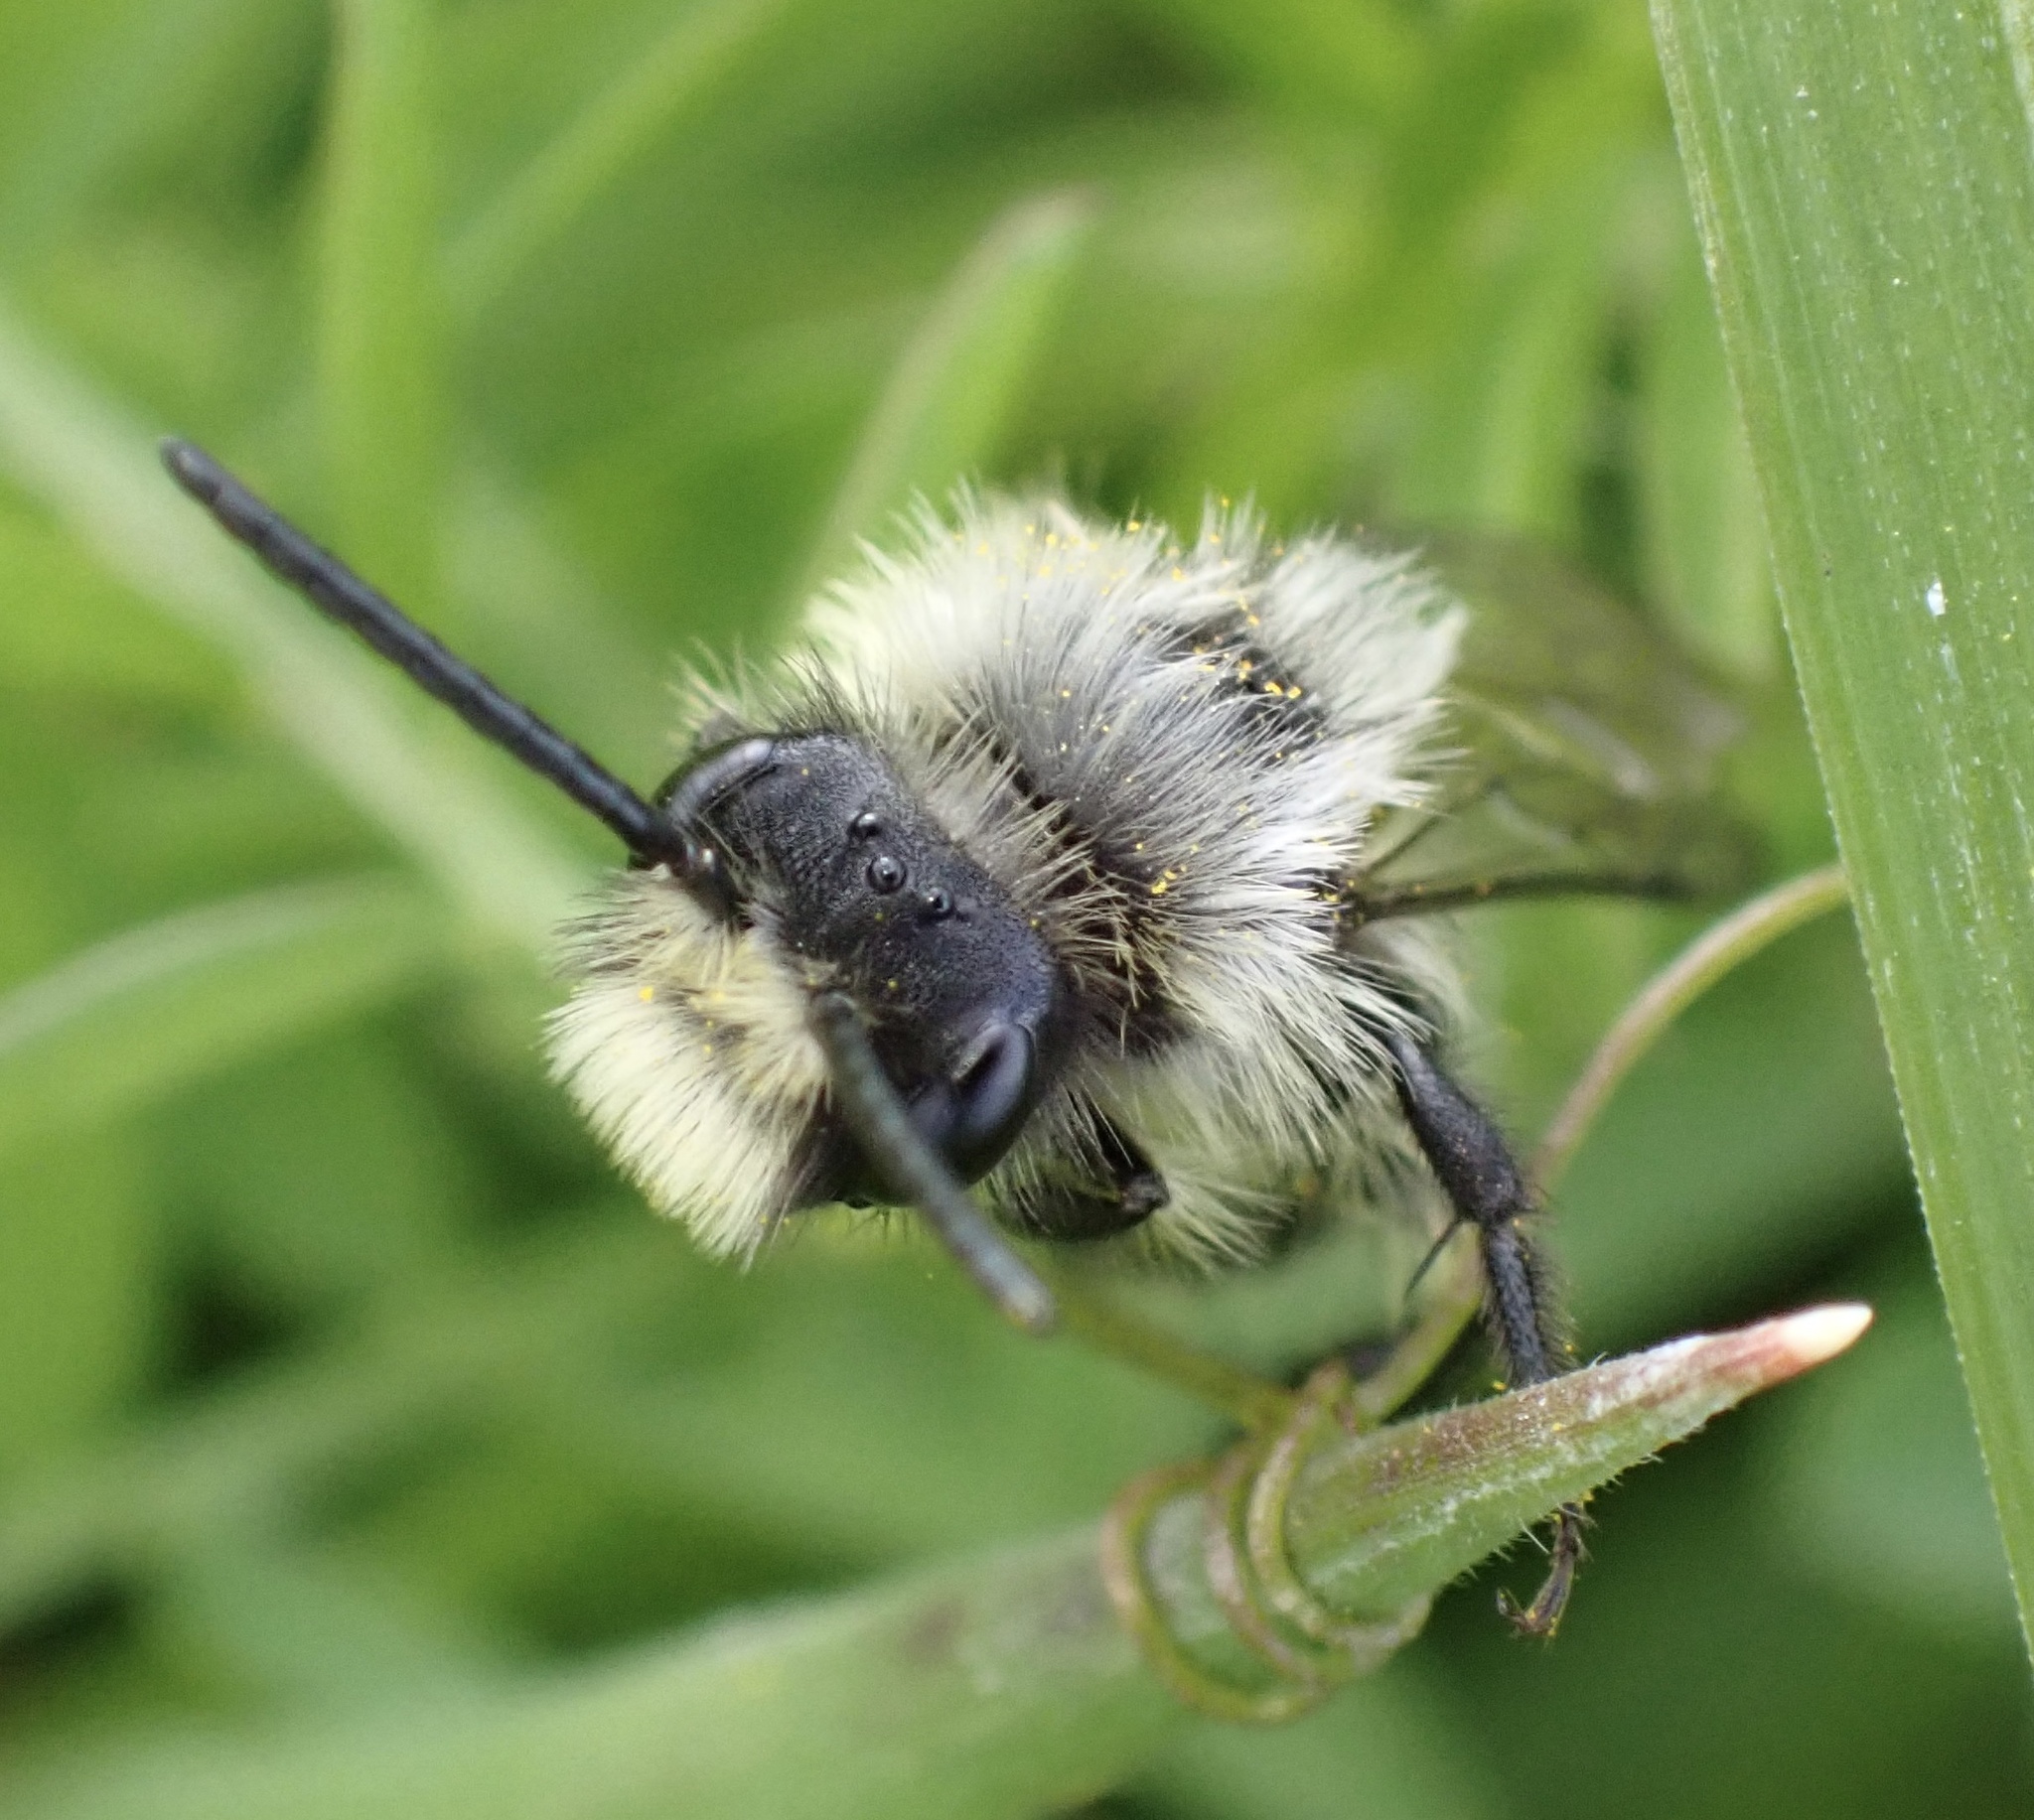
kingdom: Animalia
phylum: Arthropoda
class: Insecta
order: Hymenoptera
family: Andrenidae
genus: Andrena
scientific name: Andrena cineraria
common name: Ashy mining bee
